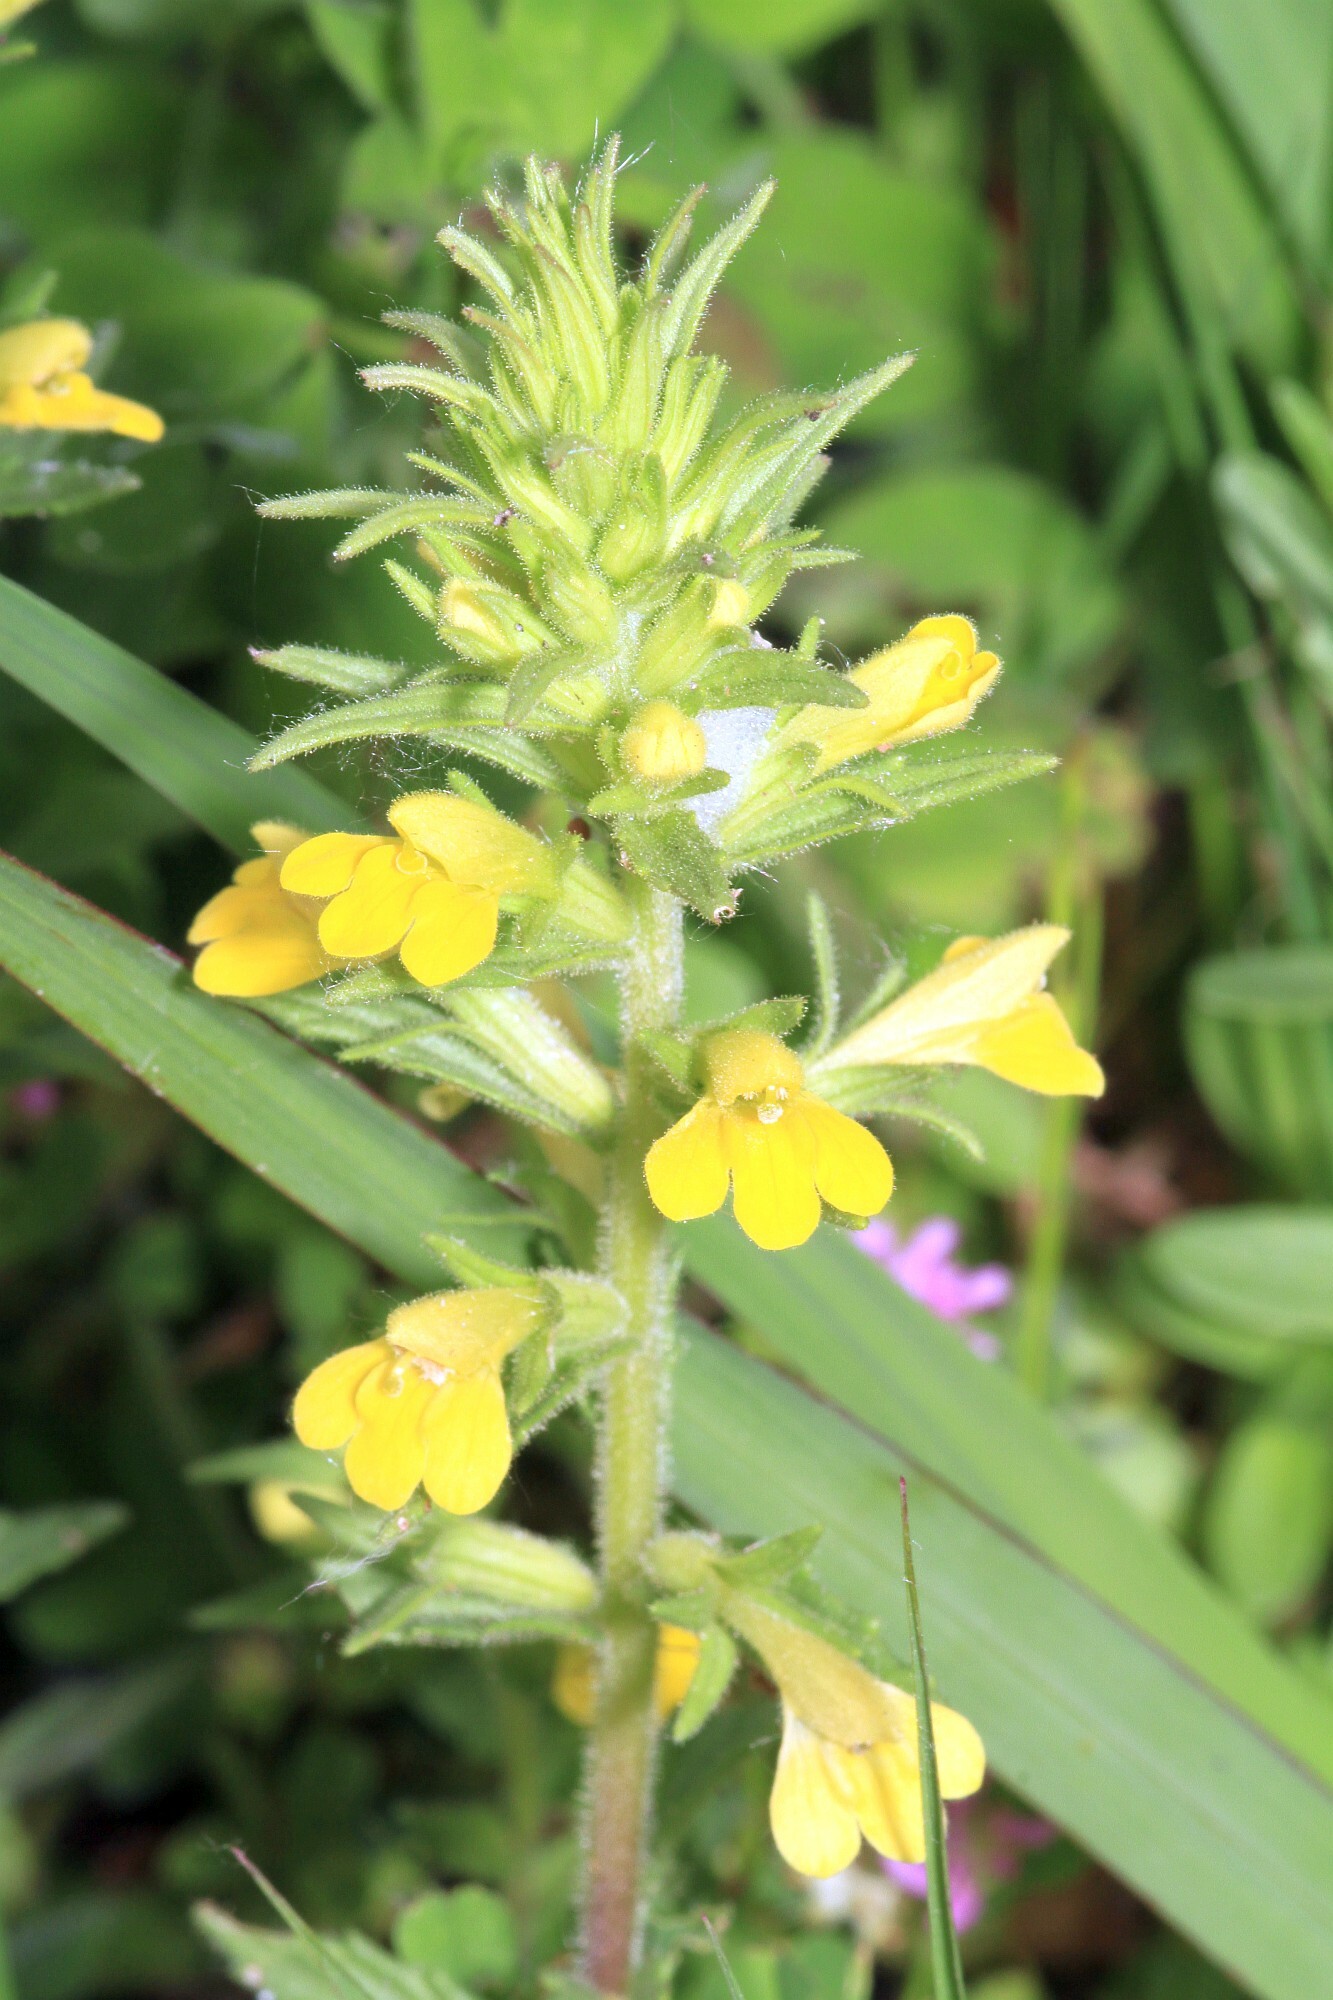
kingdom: Plantae
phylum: Tracheophyta
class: Magnoliopsida
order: Lamiales
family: Orobanchaceae
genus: Bellardia
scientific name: Bellardia viscosa
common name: Sticky parentucellia
